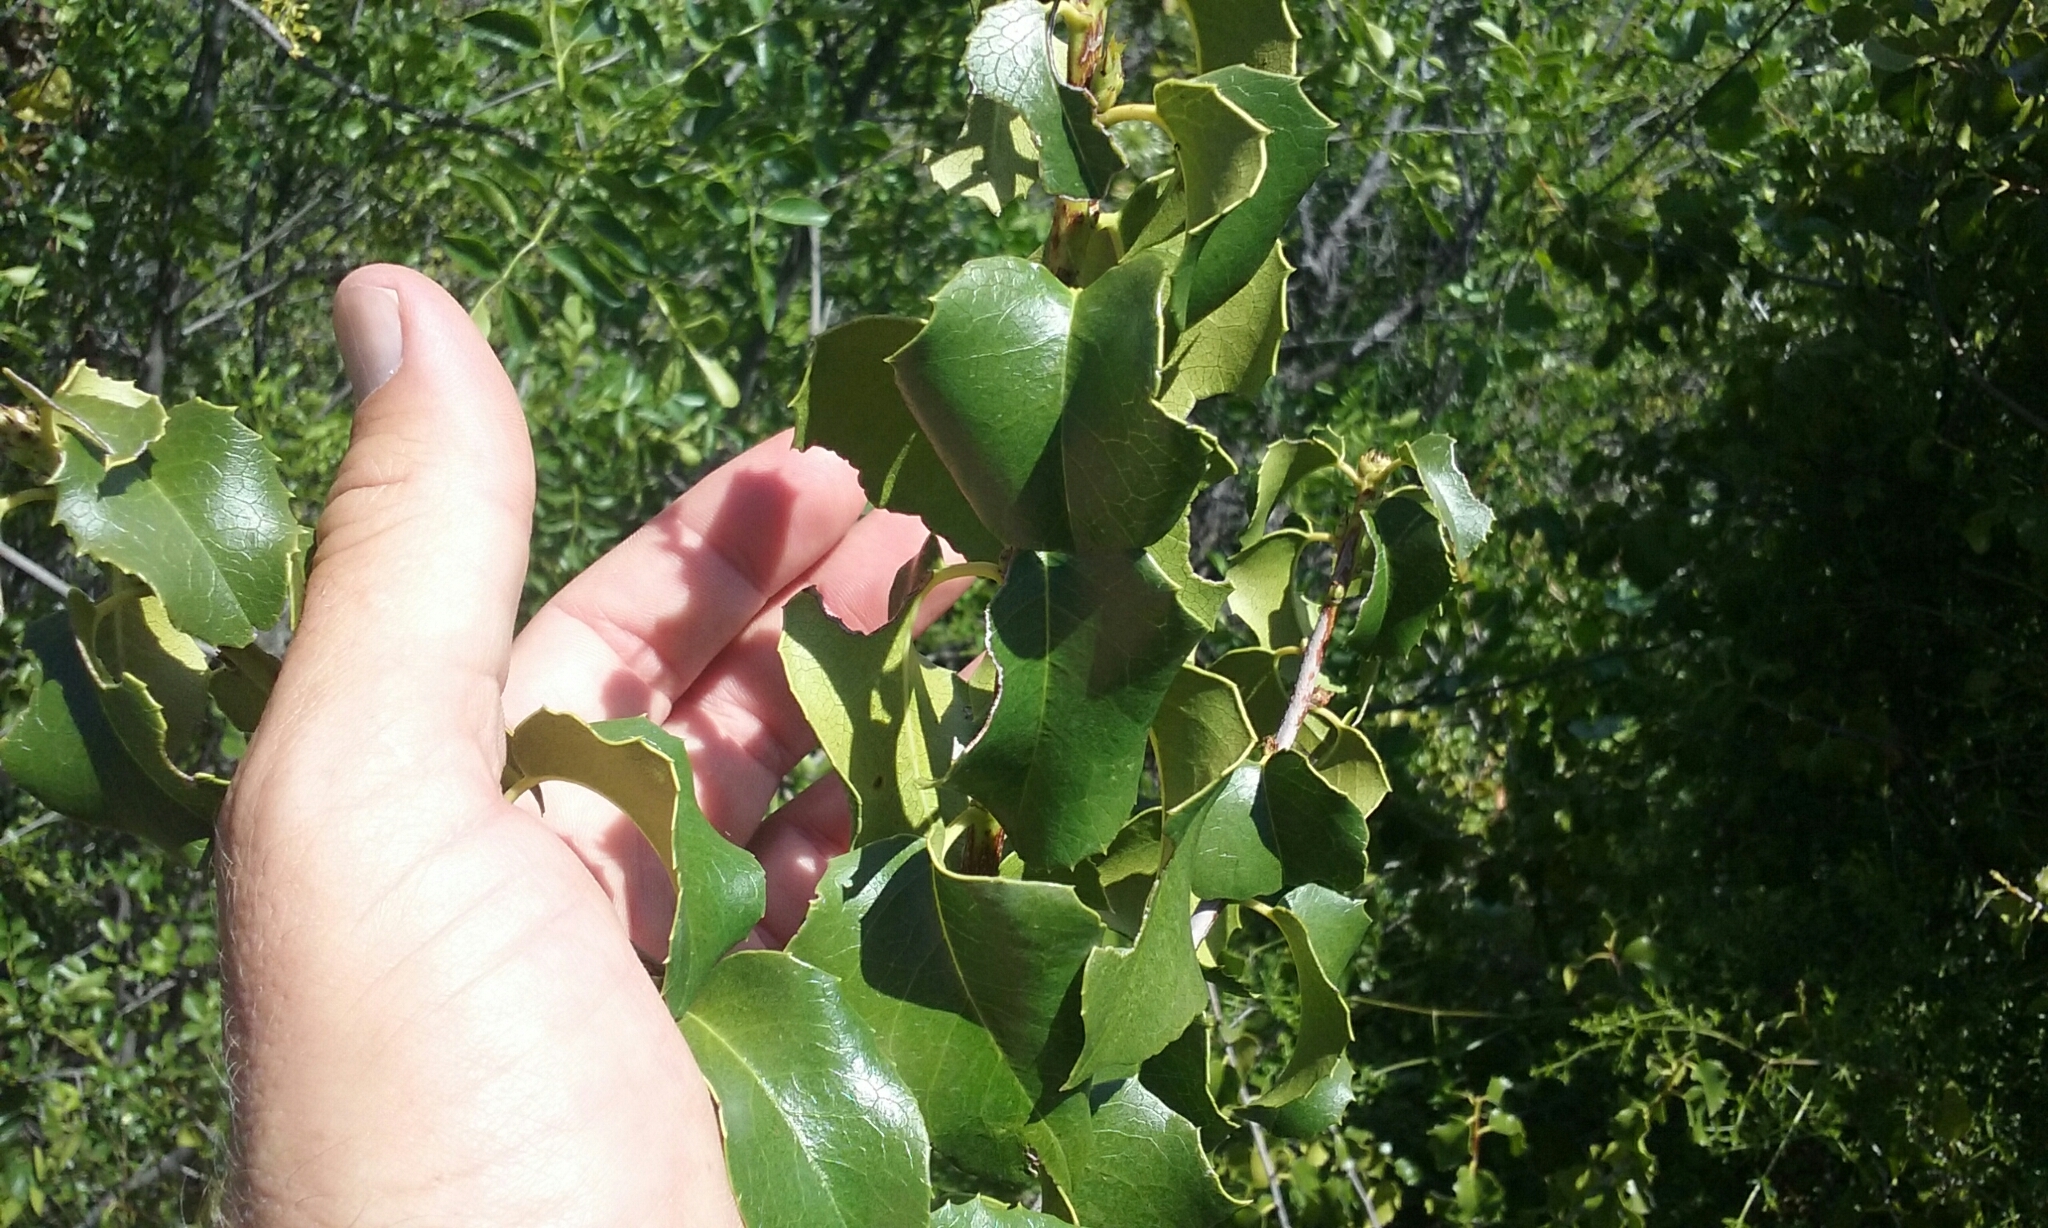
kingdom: Plantae
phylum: Tracheophyta
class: Magnoliopsida
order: Rosales
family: Rosaceae
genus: Prunus
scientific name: Prunus ilicifolia
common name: Hollyleaf cherry
